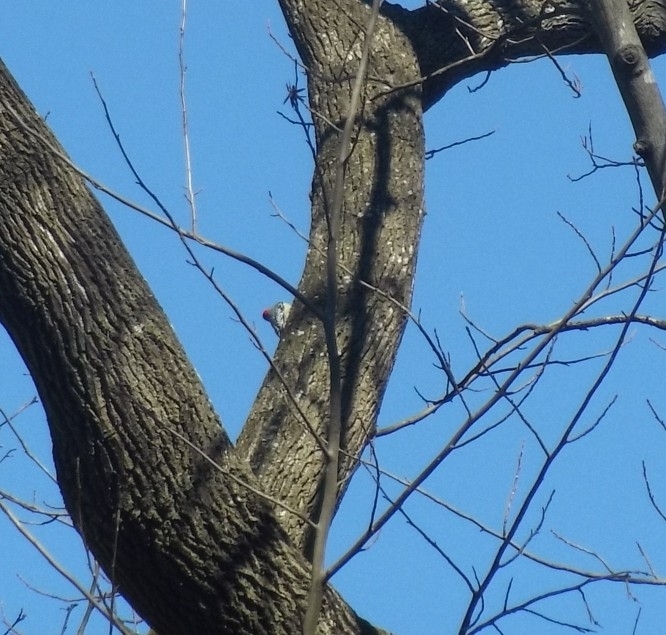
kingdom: Animalia
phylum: Chordata
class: Aves
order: Piciformes
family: Picidae
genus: Melanerpes
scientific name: Melanerpes carolinus
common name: Red-bellied woodpecker
